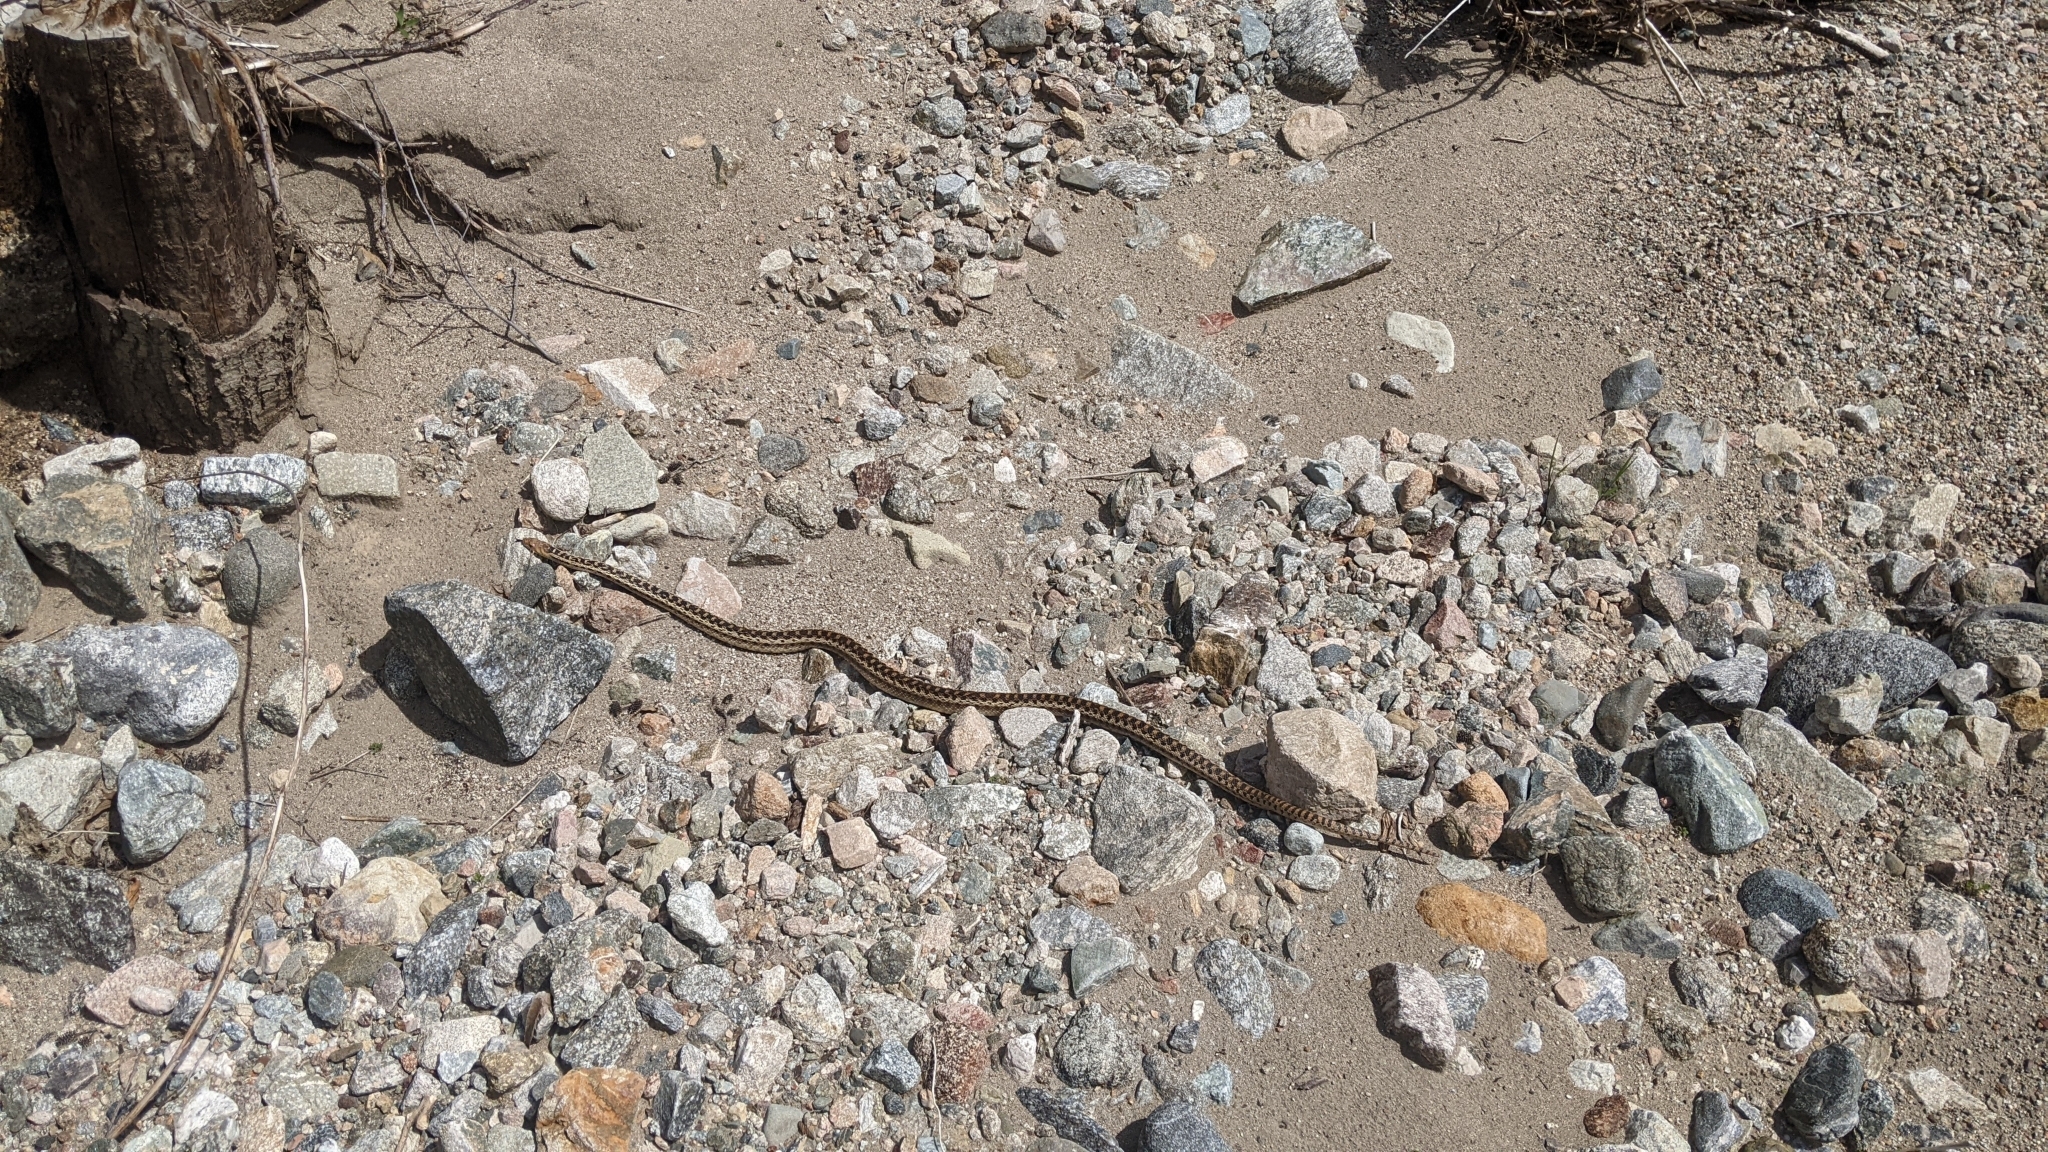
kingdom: Animalia
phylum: Chordata
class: Squamata
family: Colubridae
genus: Pituophis
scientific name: Pituophis catenifer
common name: Gopher snake
